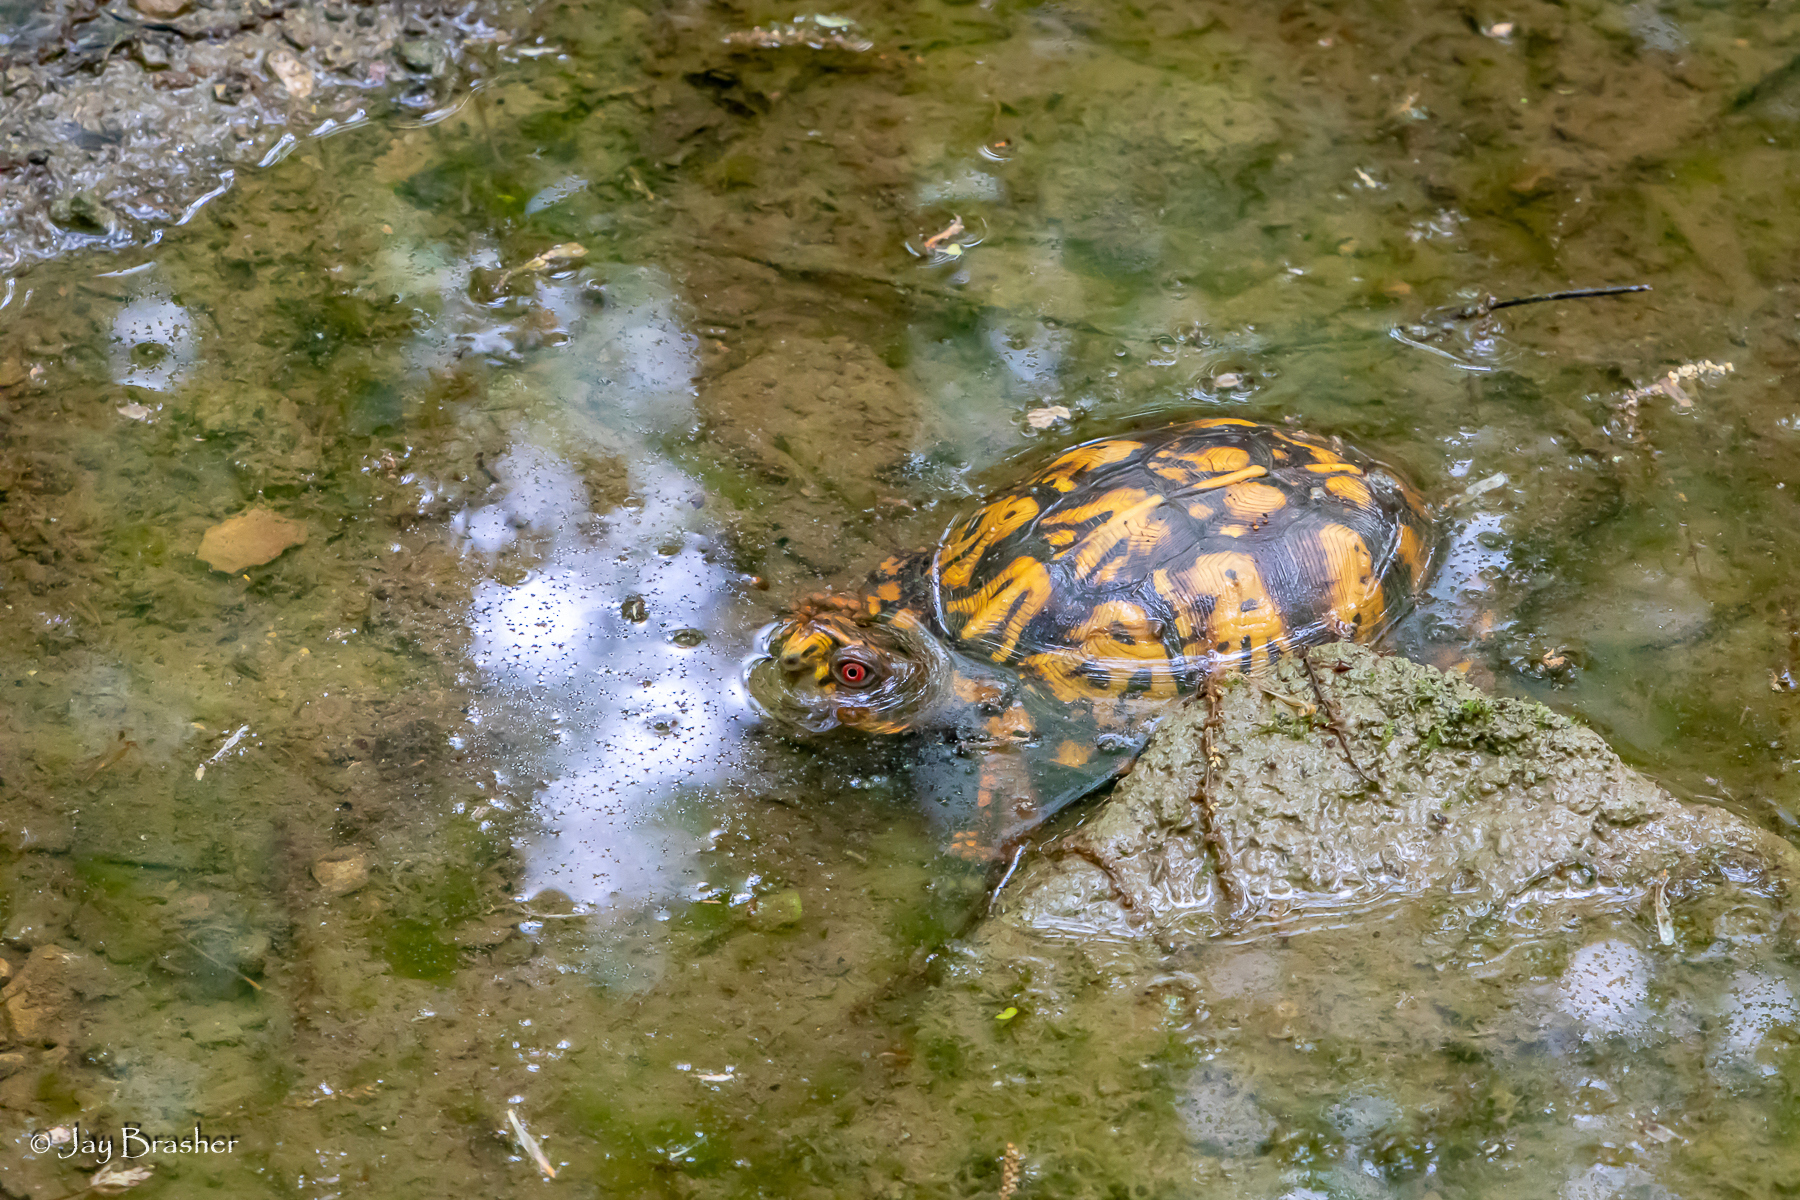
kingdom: Animalia
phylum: Chordata
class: Testudines
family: Emydidae
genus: Terrapene
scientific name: Terrapene carolina
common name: Common box turtle
